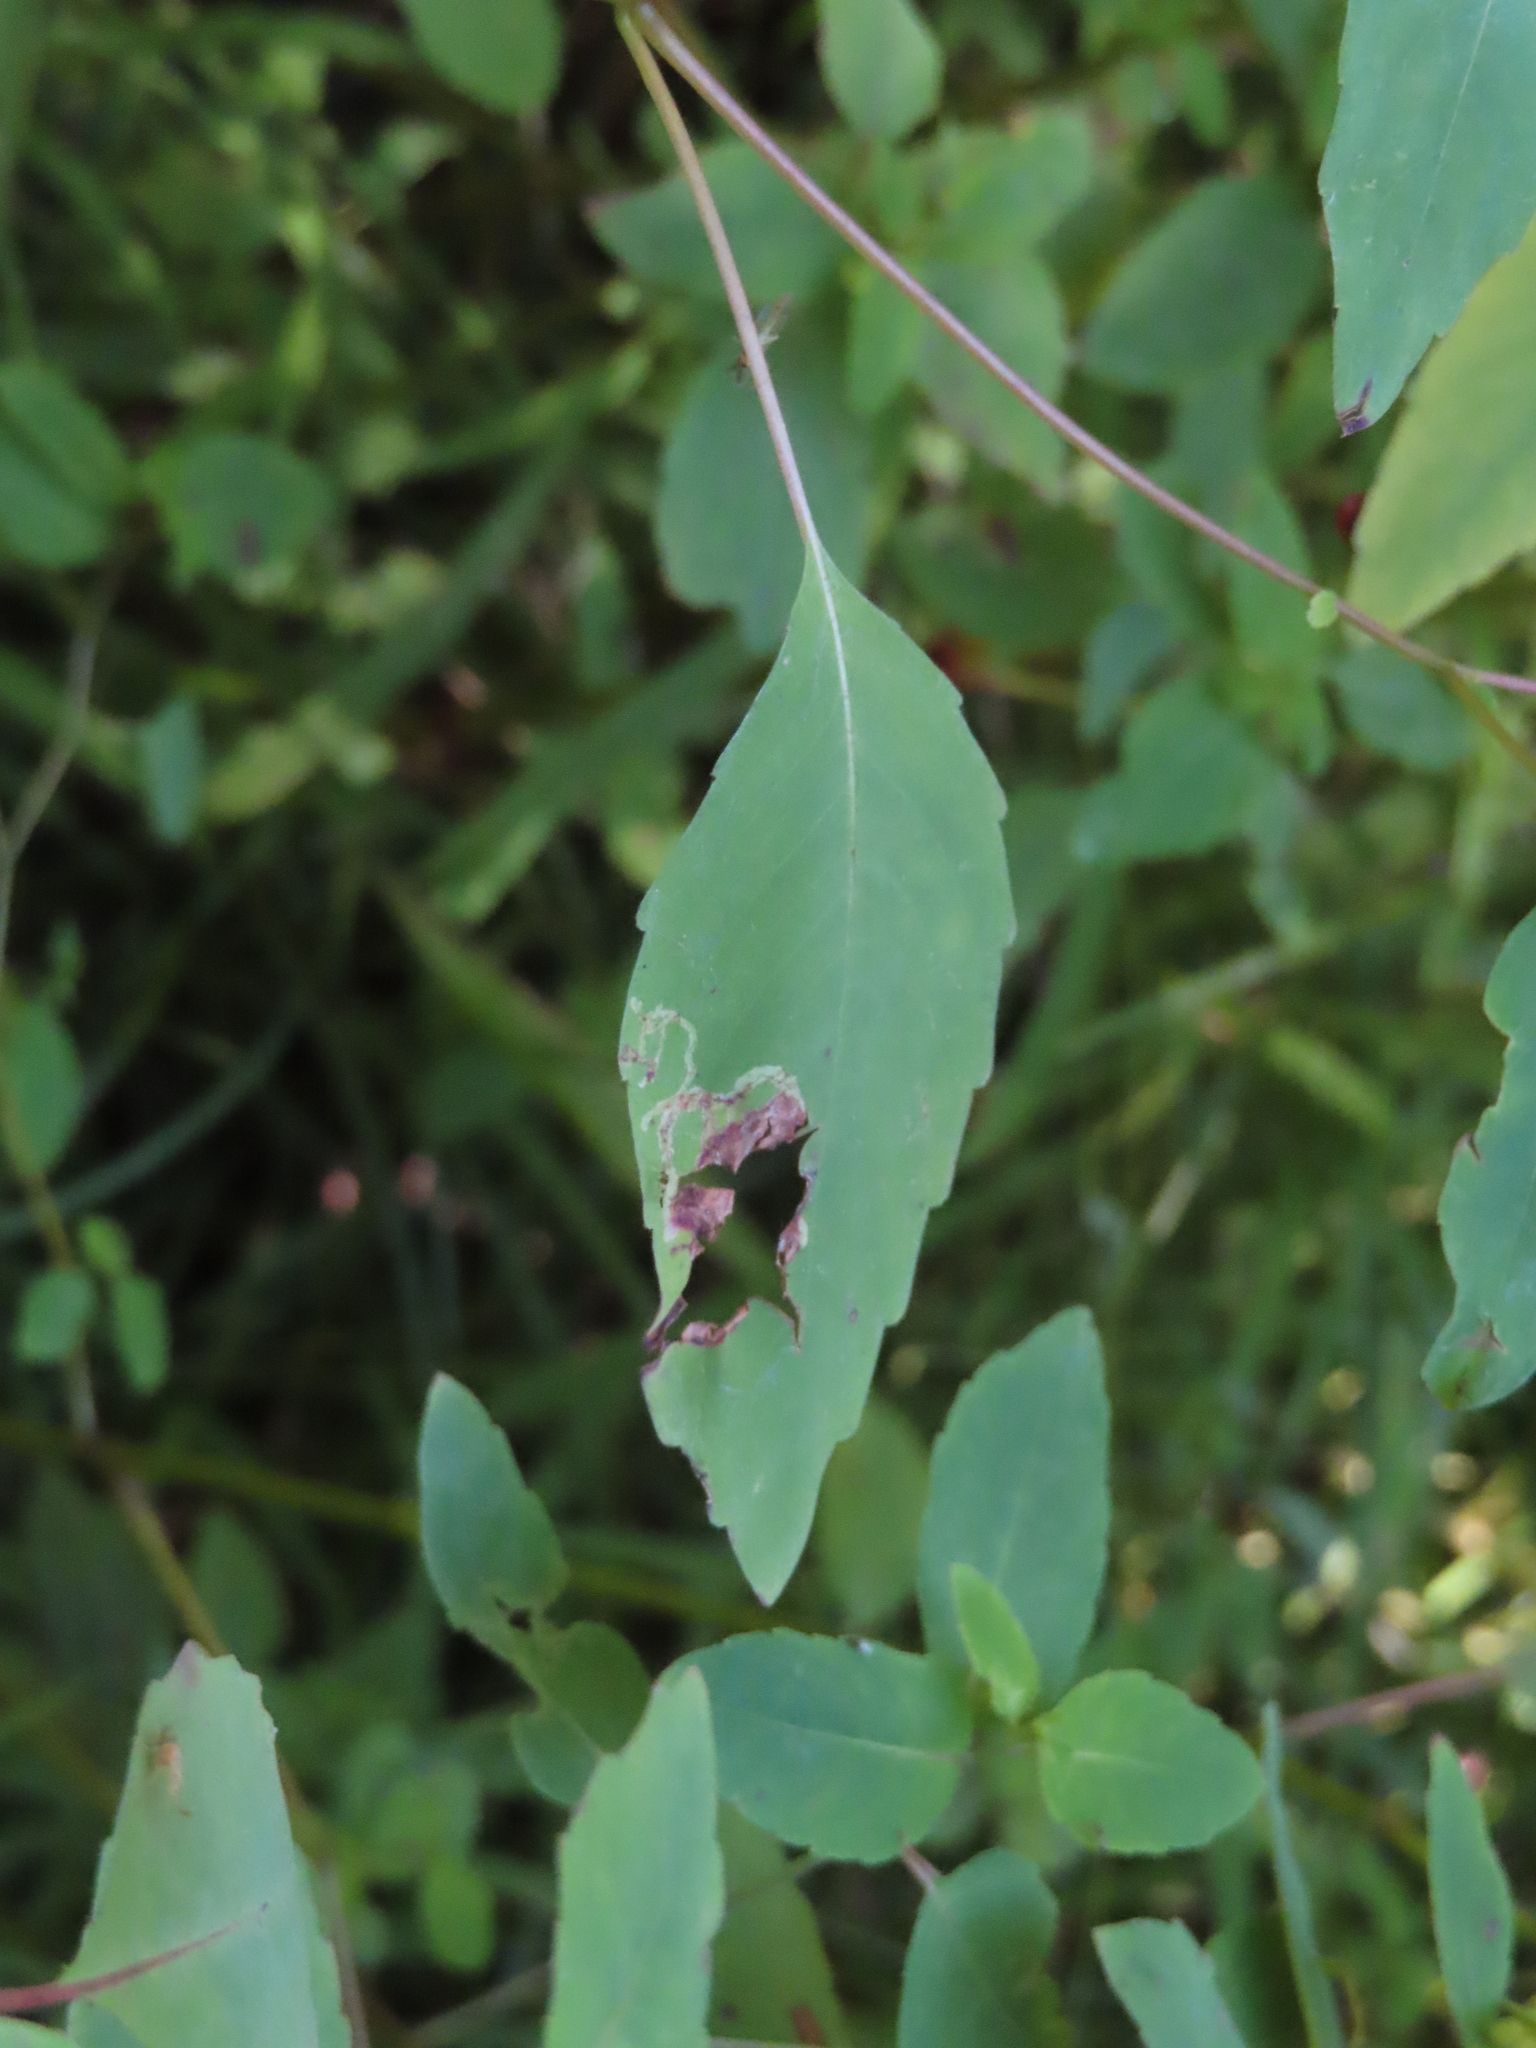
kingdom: Animalia
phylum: Arthropoda
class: Insecta
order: Diptera
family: Agromyzidae
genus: Phytoliriomyza
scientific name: Phytoliriomyza melampyga
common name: Jewelweed leaf-miner fly
